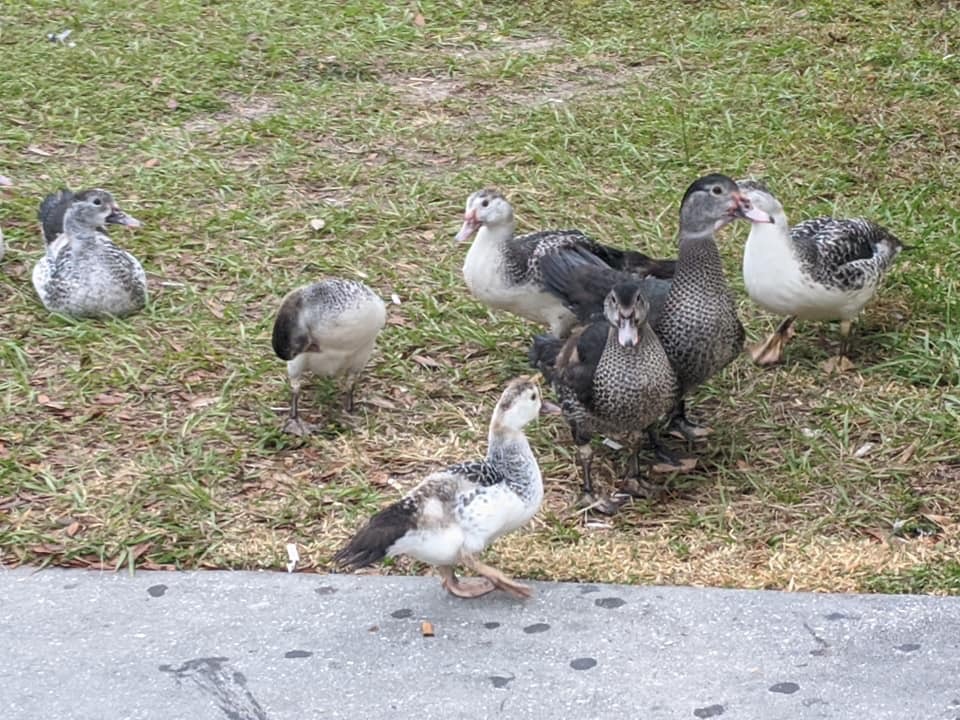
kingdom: Animalia
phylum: Chordata
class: Aves
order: Anseriformes
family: Anatidae
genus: Cairina
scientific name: Cairina moschata
